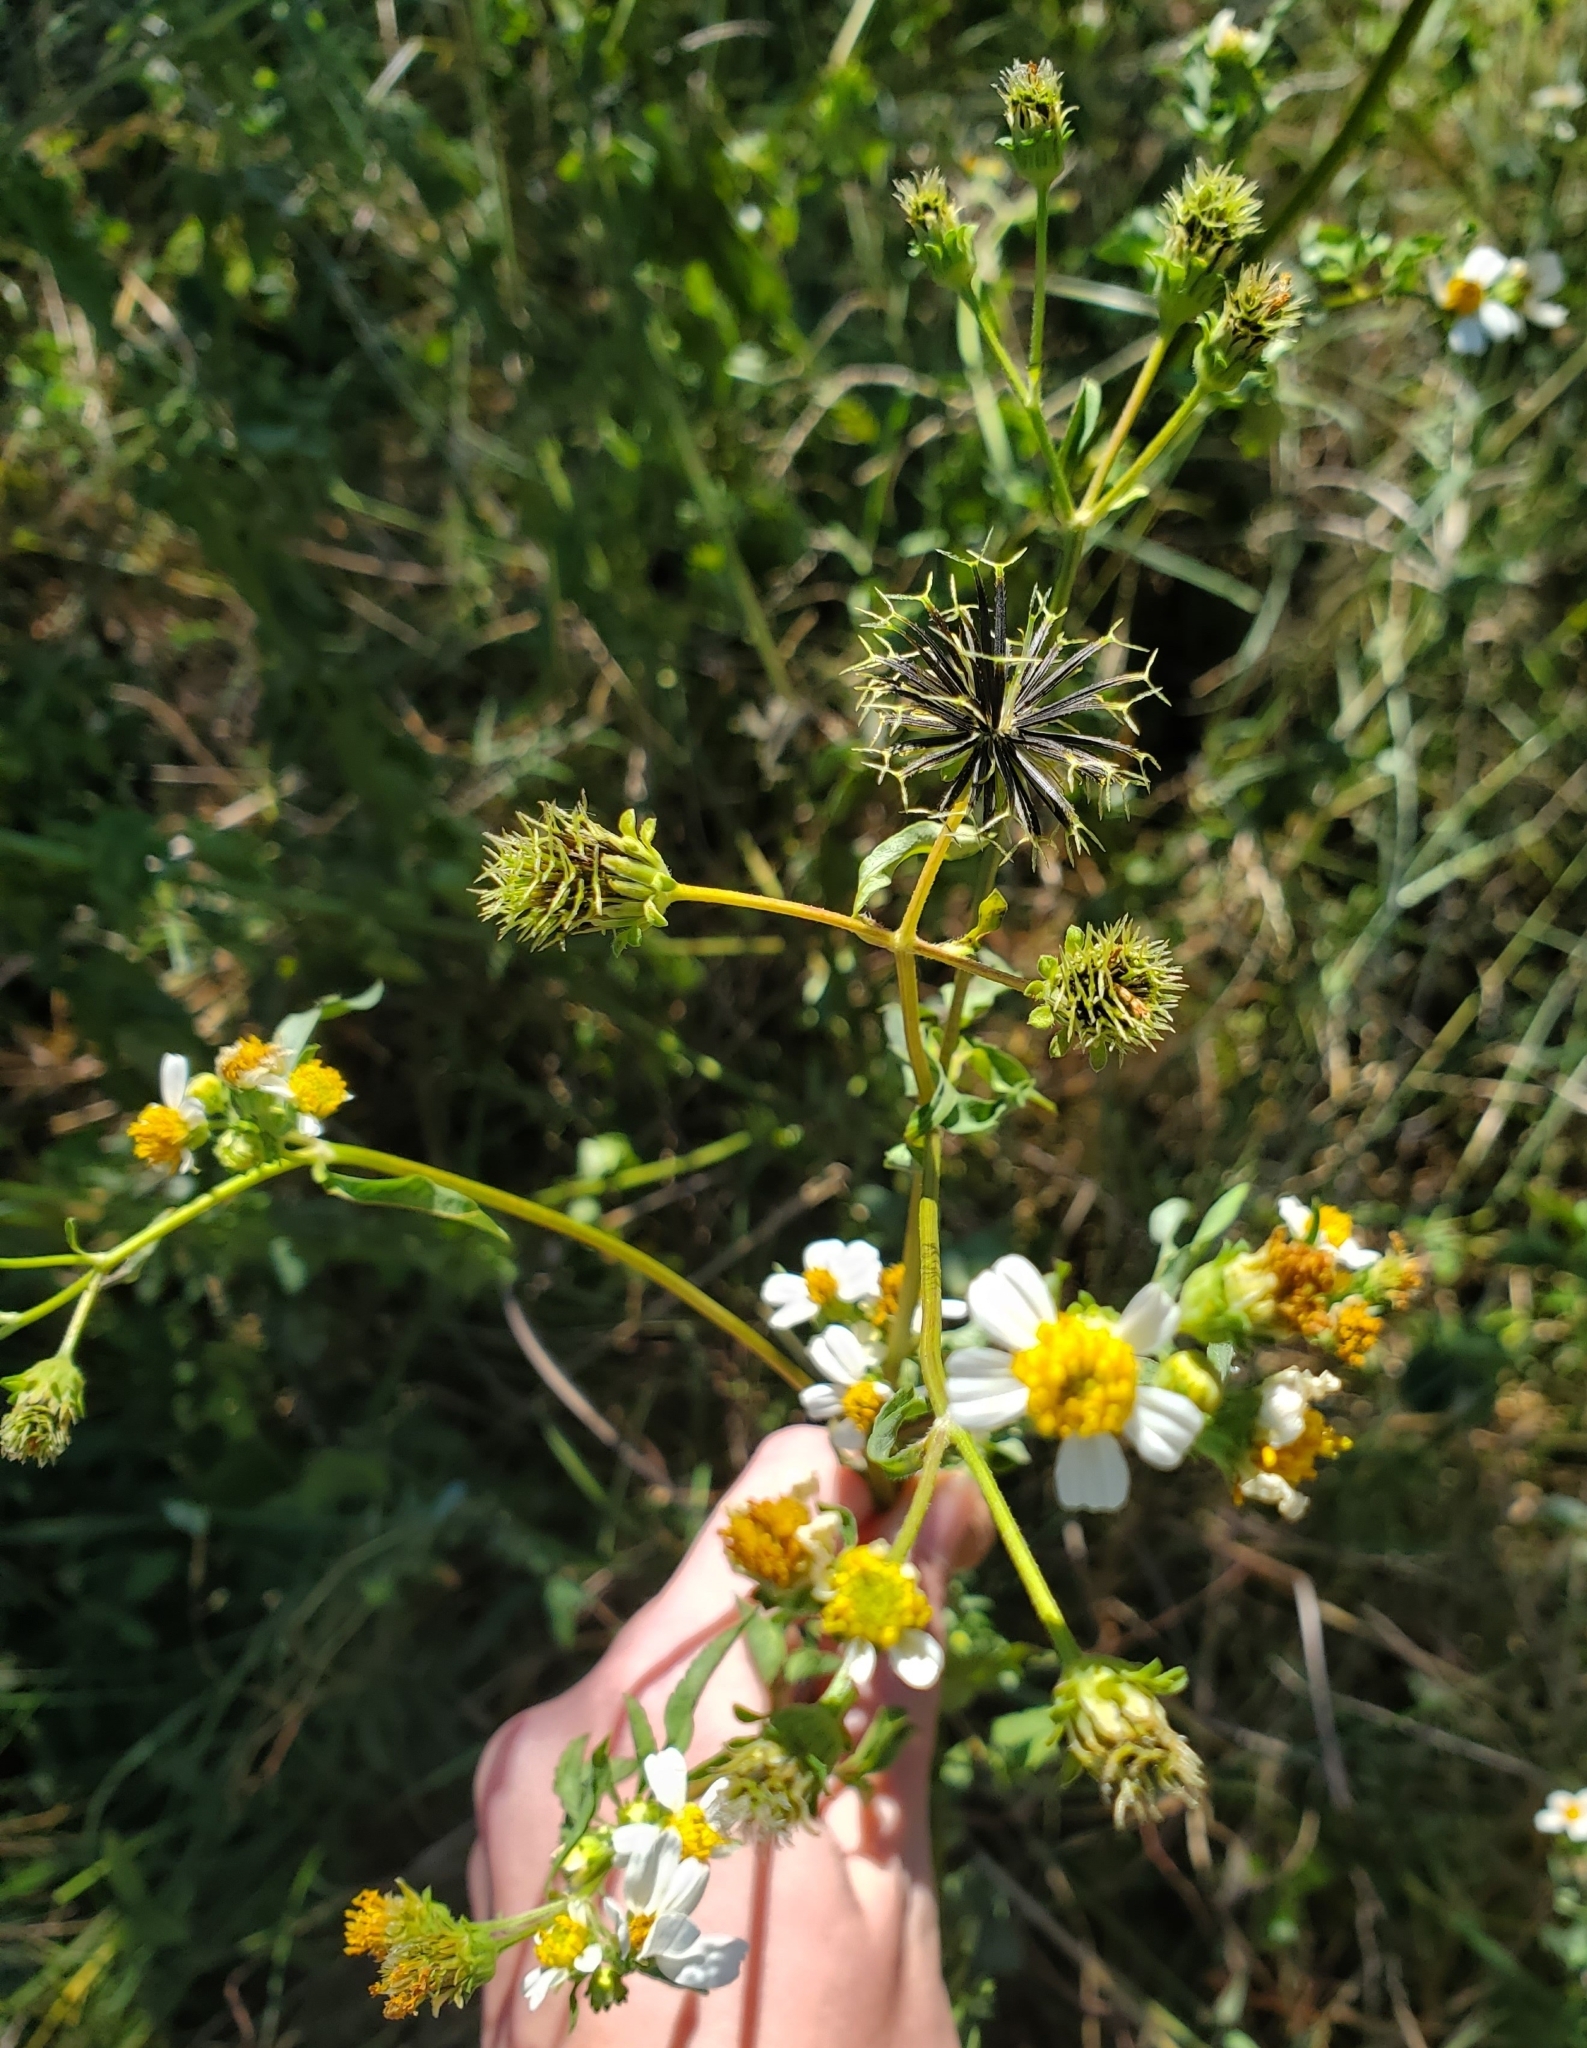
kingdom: Plantae
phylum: Tracheophyta
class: Magnoliopsida
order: Asterales
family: Asteraceae
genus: Bidens
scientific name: Bidens alba
